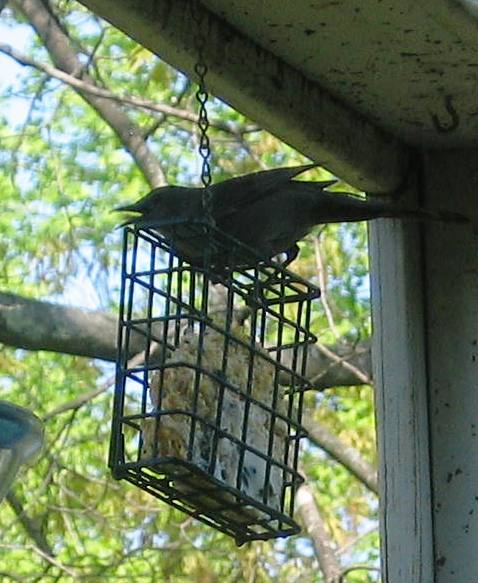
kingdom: Animalia
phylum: Chordata
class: Aves
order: Passeriformes
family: Mimidae
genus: Dumetella
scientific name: Dumetella carolinensis
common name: Gray catbird
